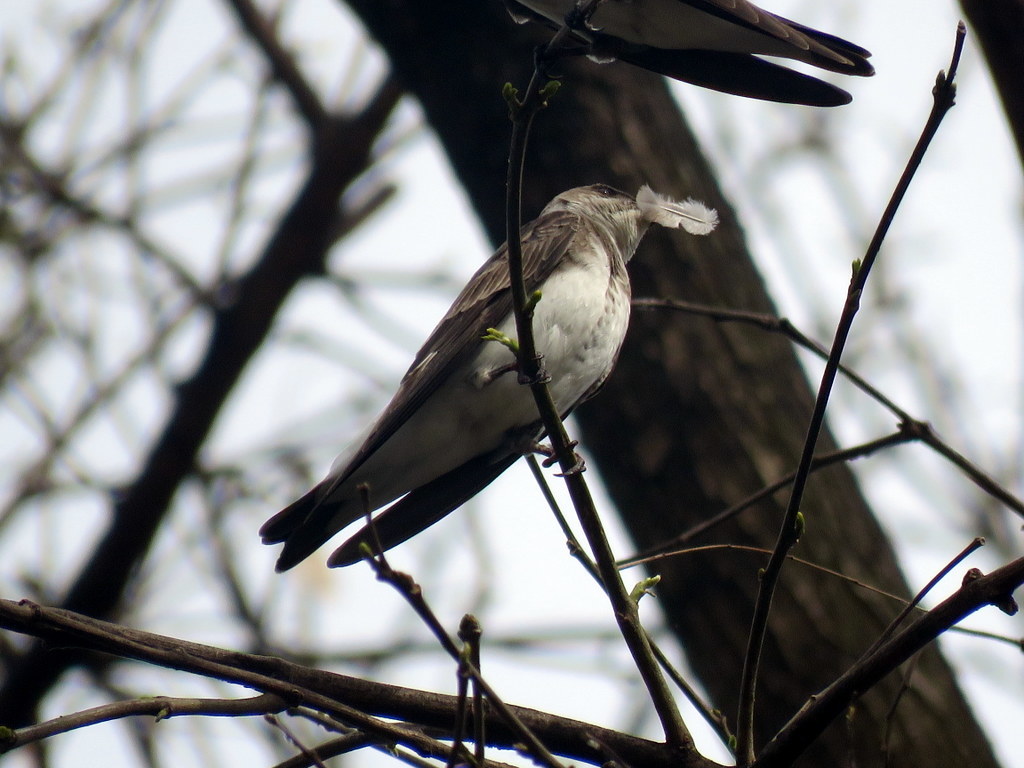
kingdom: Animalia
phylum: Chordata
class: Aves
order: Passeriformes
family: Hirundinidae
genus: Progne
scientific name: Progne tapera
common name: Brown-chested martin
